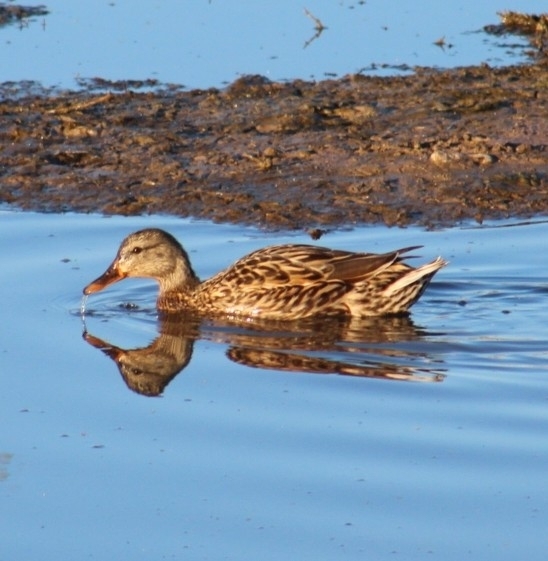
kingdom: Animalia
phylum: Chordata
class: Aves
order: Anseriformes
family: Anatidae
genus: Anas
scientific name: Anas platyrhynchos
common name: Mallard
